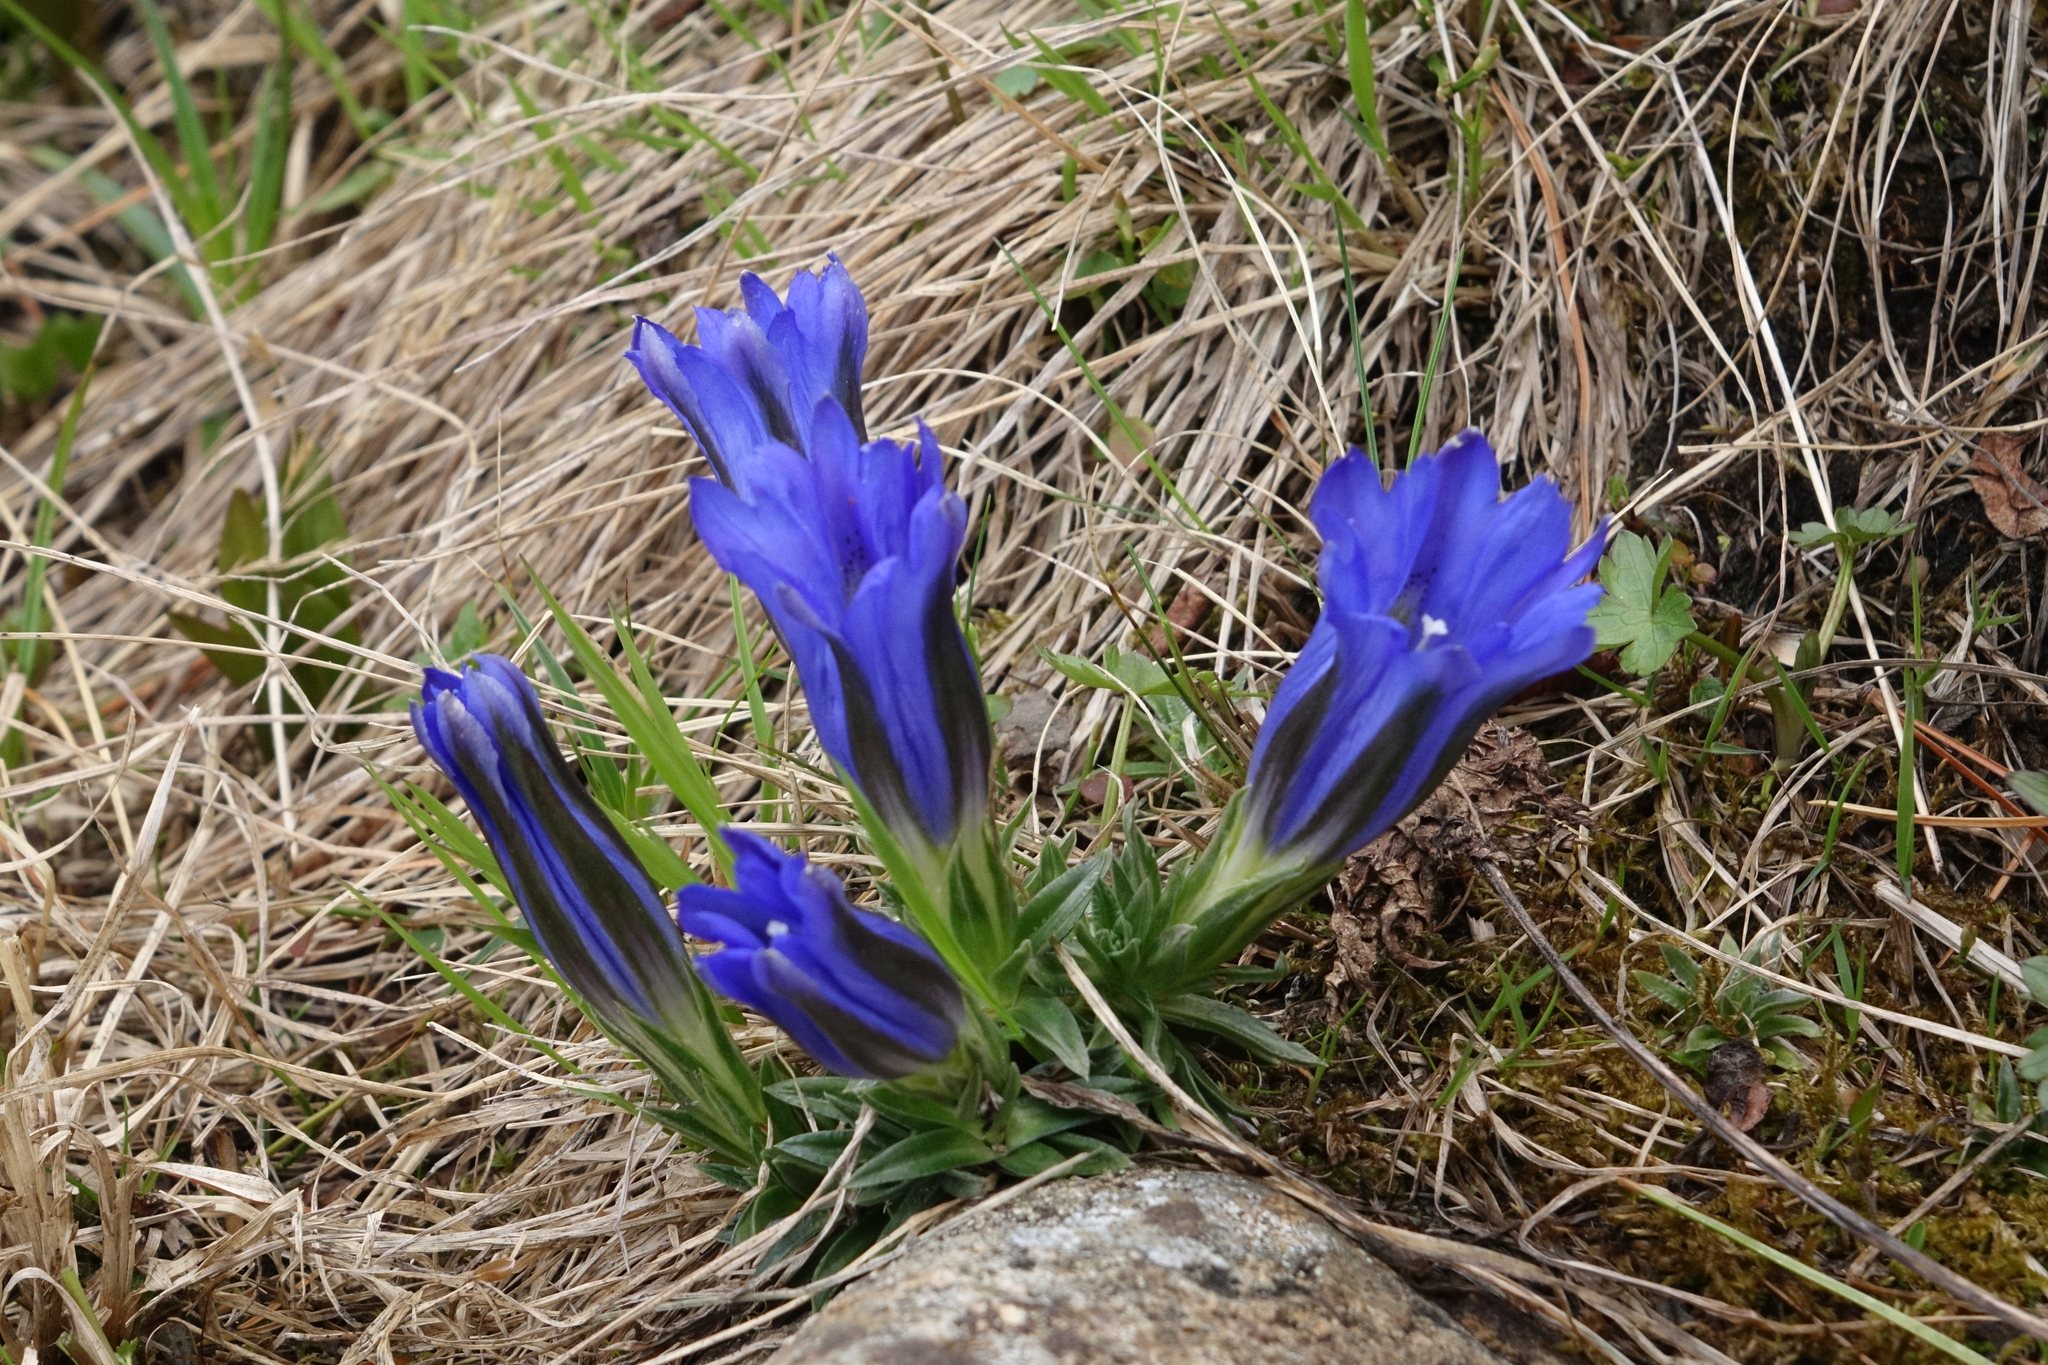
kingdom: Plantae
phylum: Tracheophyta
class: Magnoliopsida
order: Gentianales
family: Gentianaceae
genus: Gentiana
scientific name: Gentiana grandiflora
